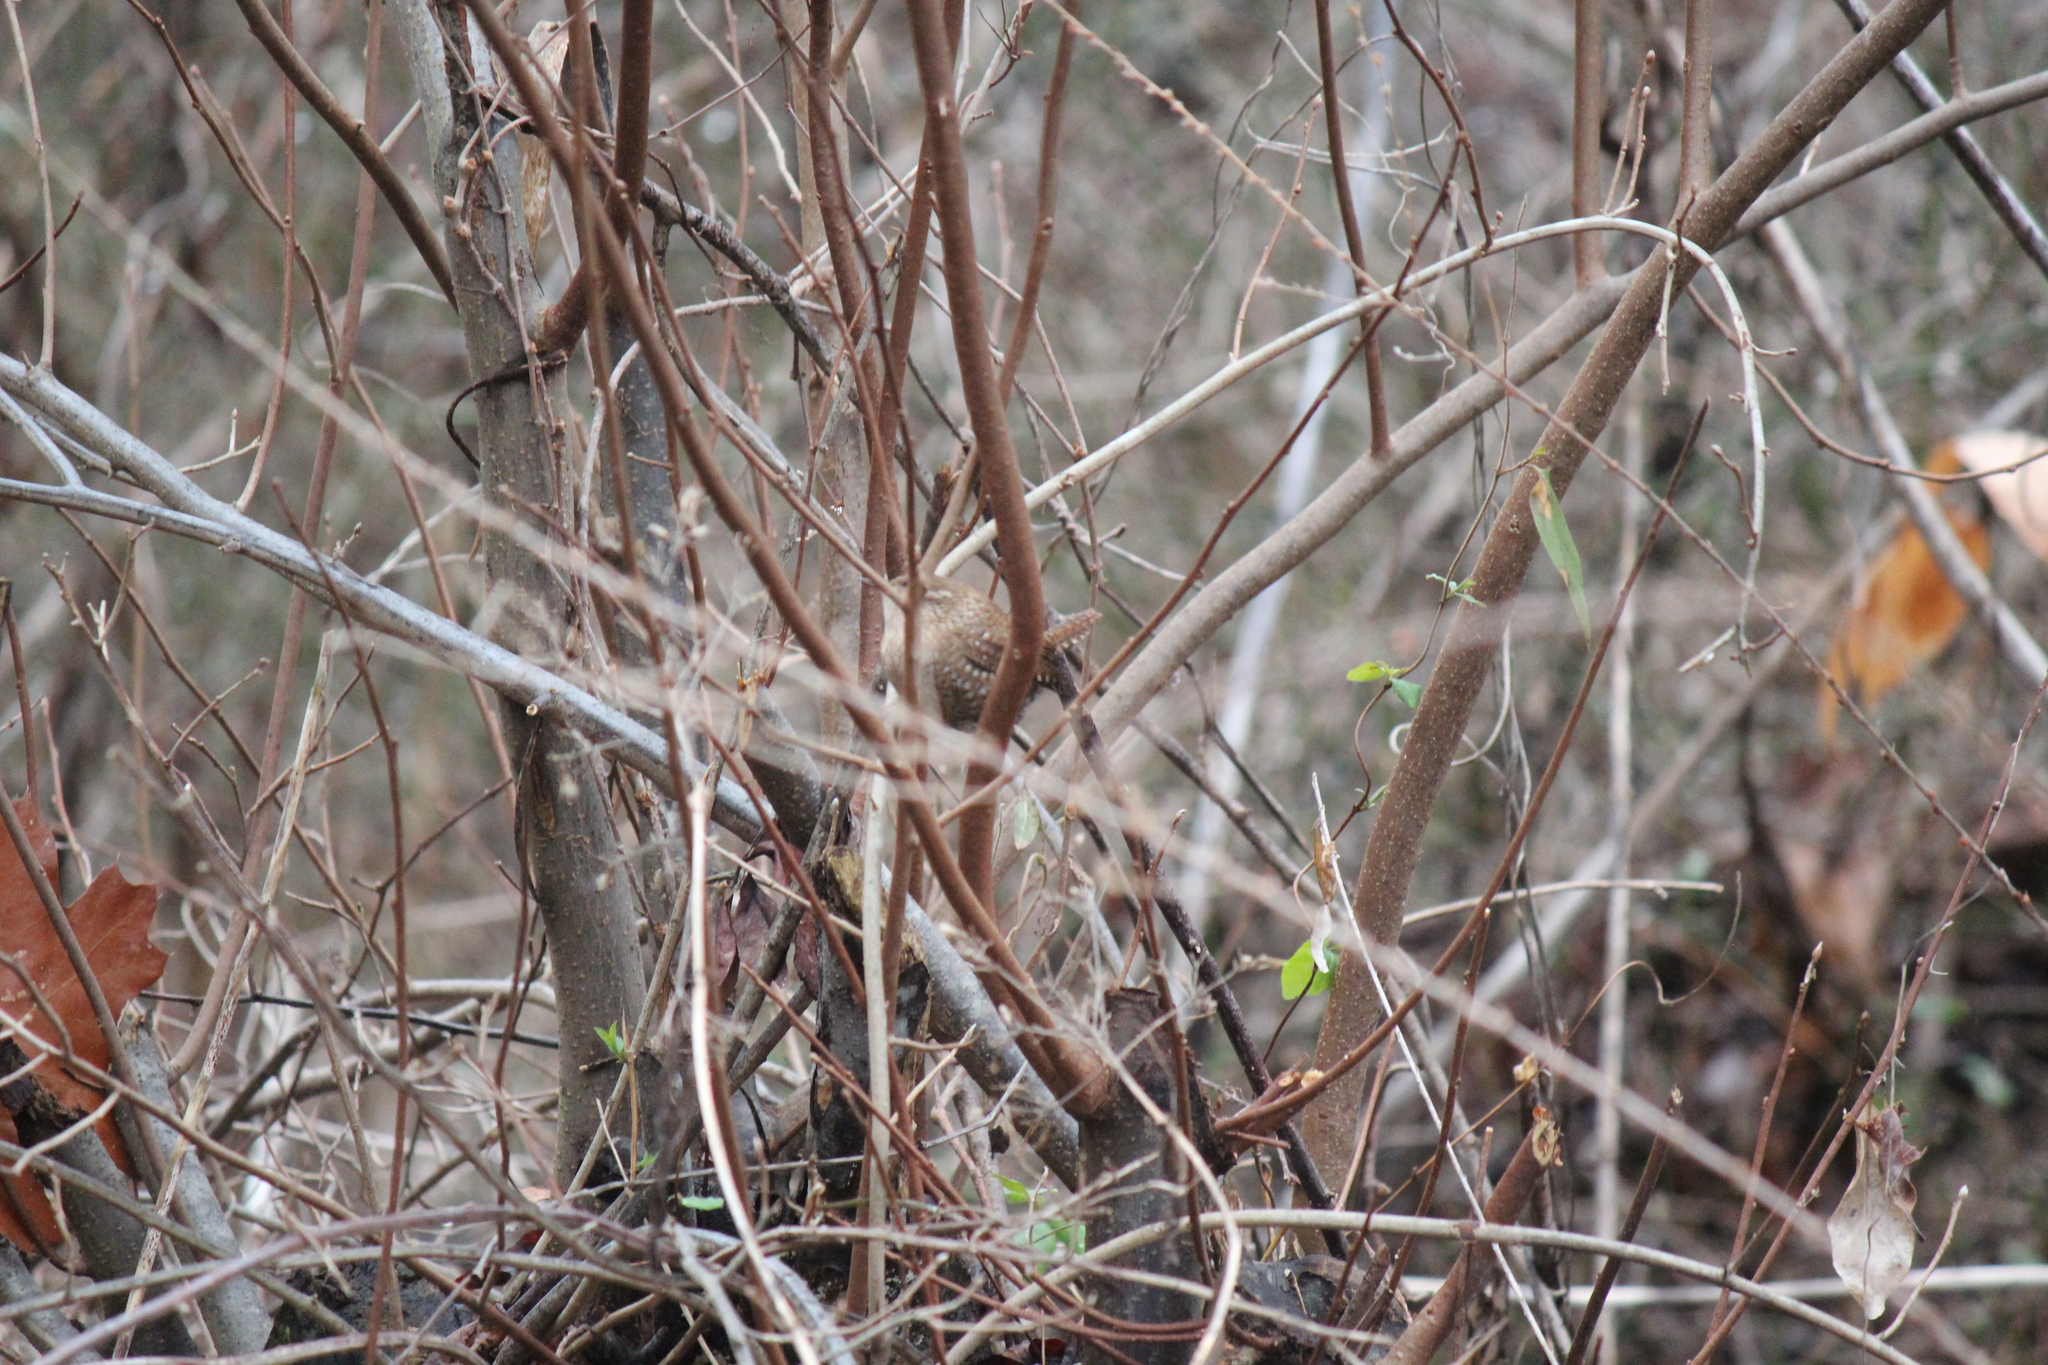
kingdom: Animalia
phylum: Chordata
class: Aves
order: Passeriformes
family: Troglodytidae
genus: Troglodytes
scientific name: Troglodytes hiemalis
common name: Winter wren
